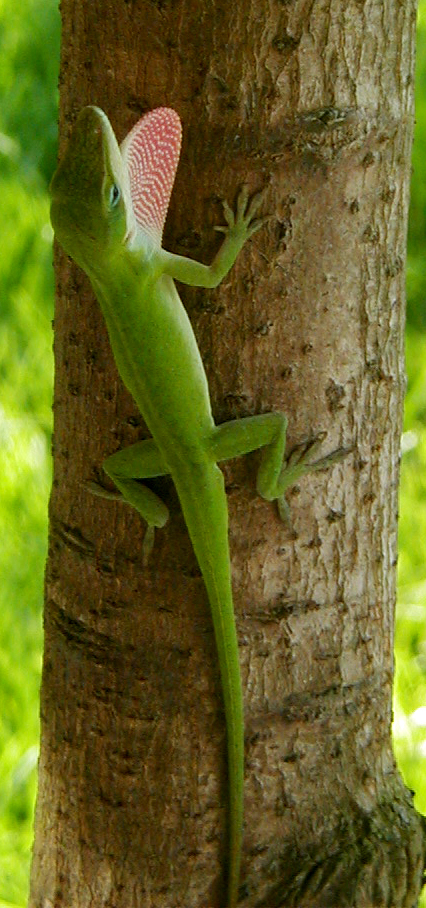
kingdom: Animalia
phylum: Chordata
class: Squamata
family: Dactyloidae
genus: Anolis
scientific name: Anolis carolinensis
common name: Green anole
